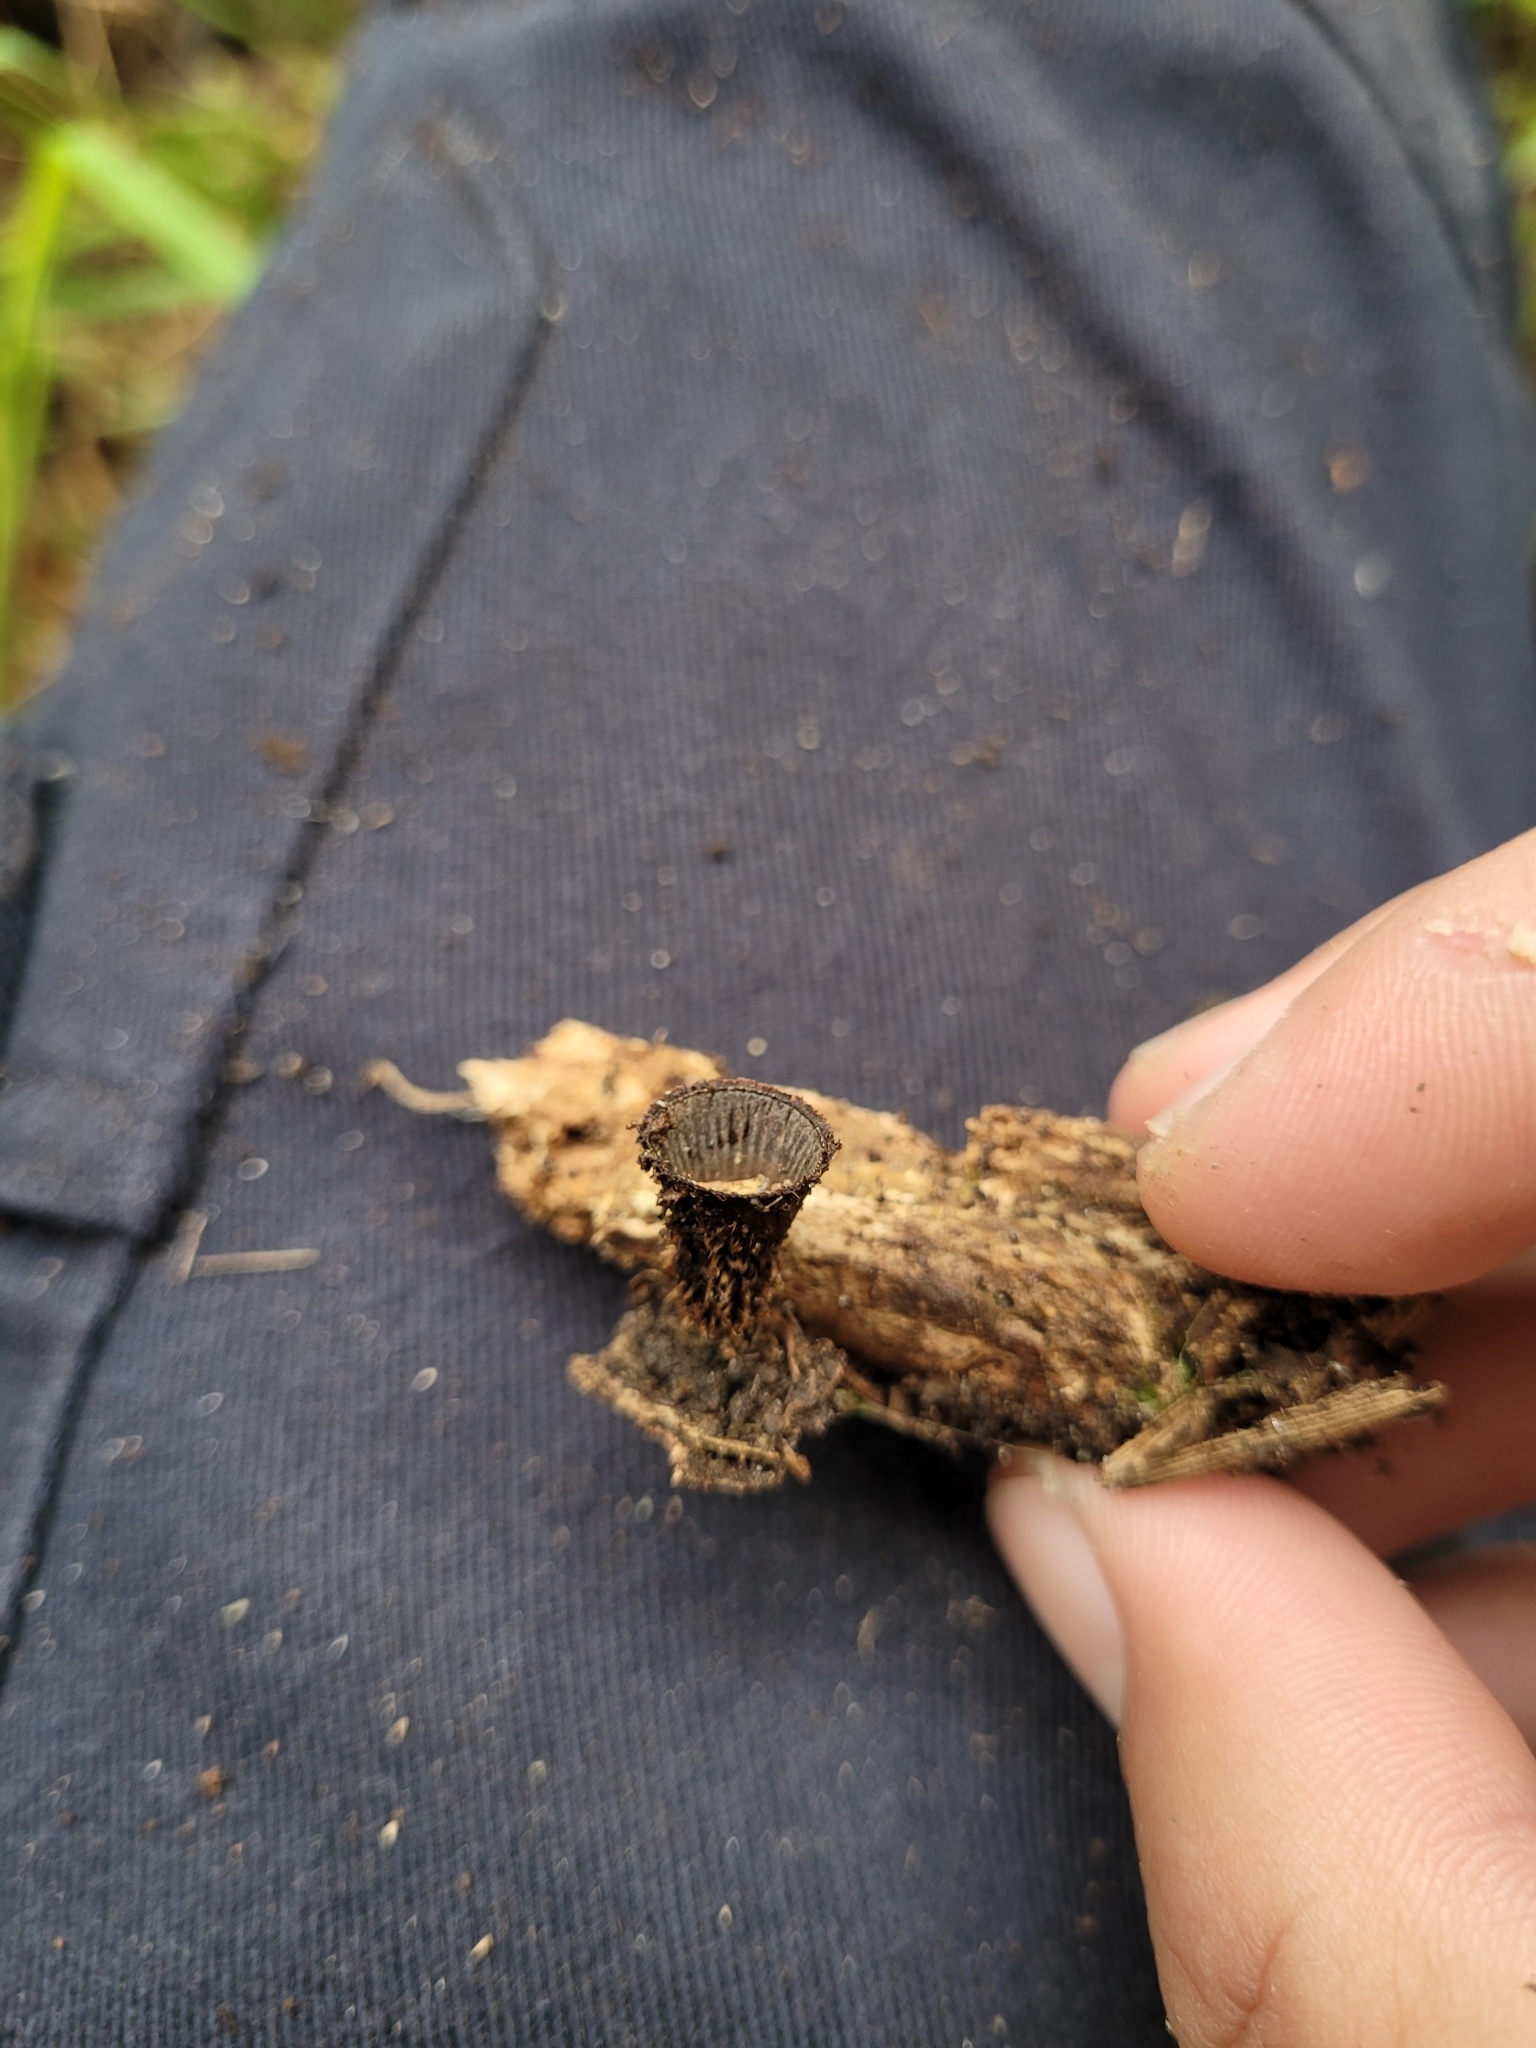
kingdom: Fungi
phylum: Basidiomycota
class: Agaricomycetes
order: Agaricales
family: Agaricaceae
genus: Cyathus
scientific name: Cyathus striatus
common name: Fluted bird's nest
